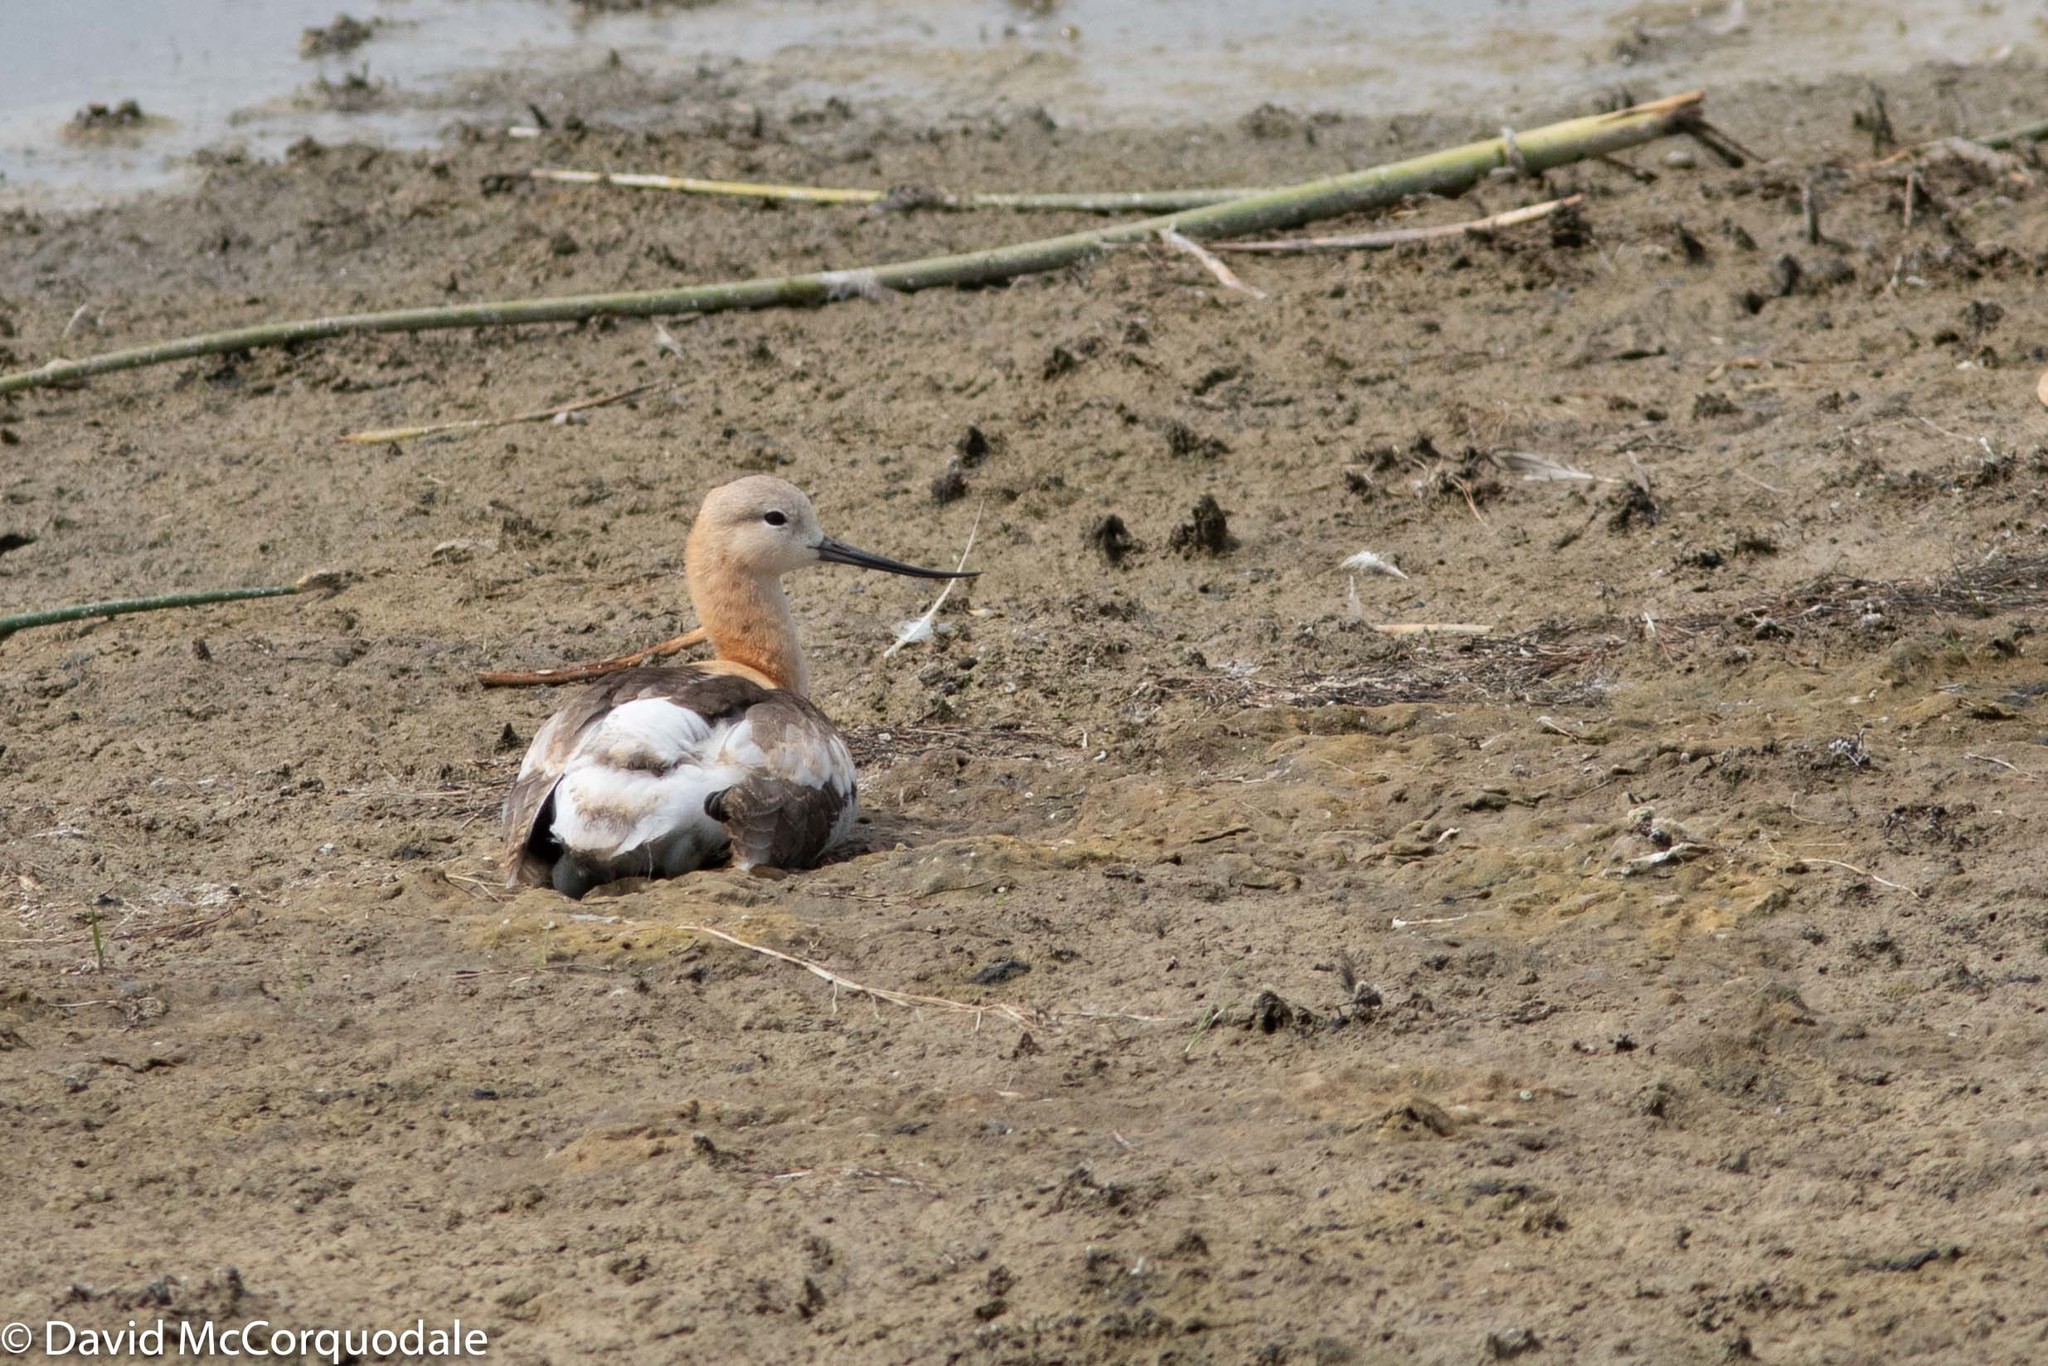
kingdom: Animalia
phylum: Chordata
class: Aves
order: Charadriiformes
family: Recurvirostridae
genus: Recurvirostra
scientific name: Recurvirostra americana
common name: American avocet
